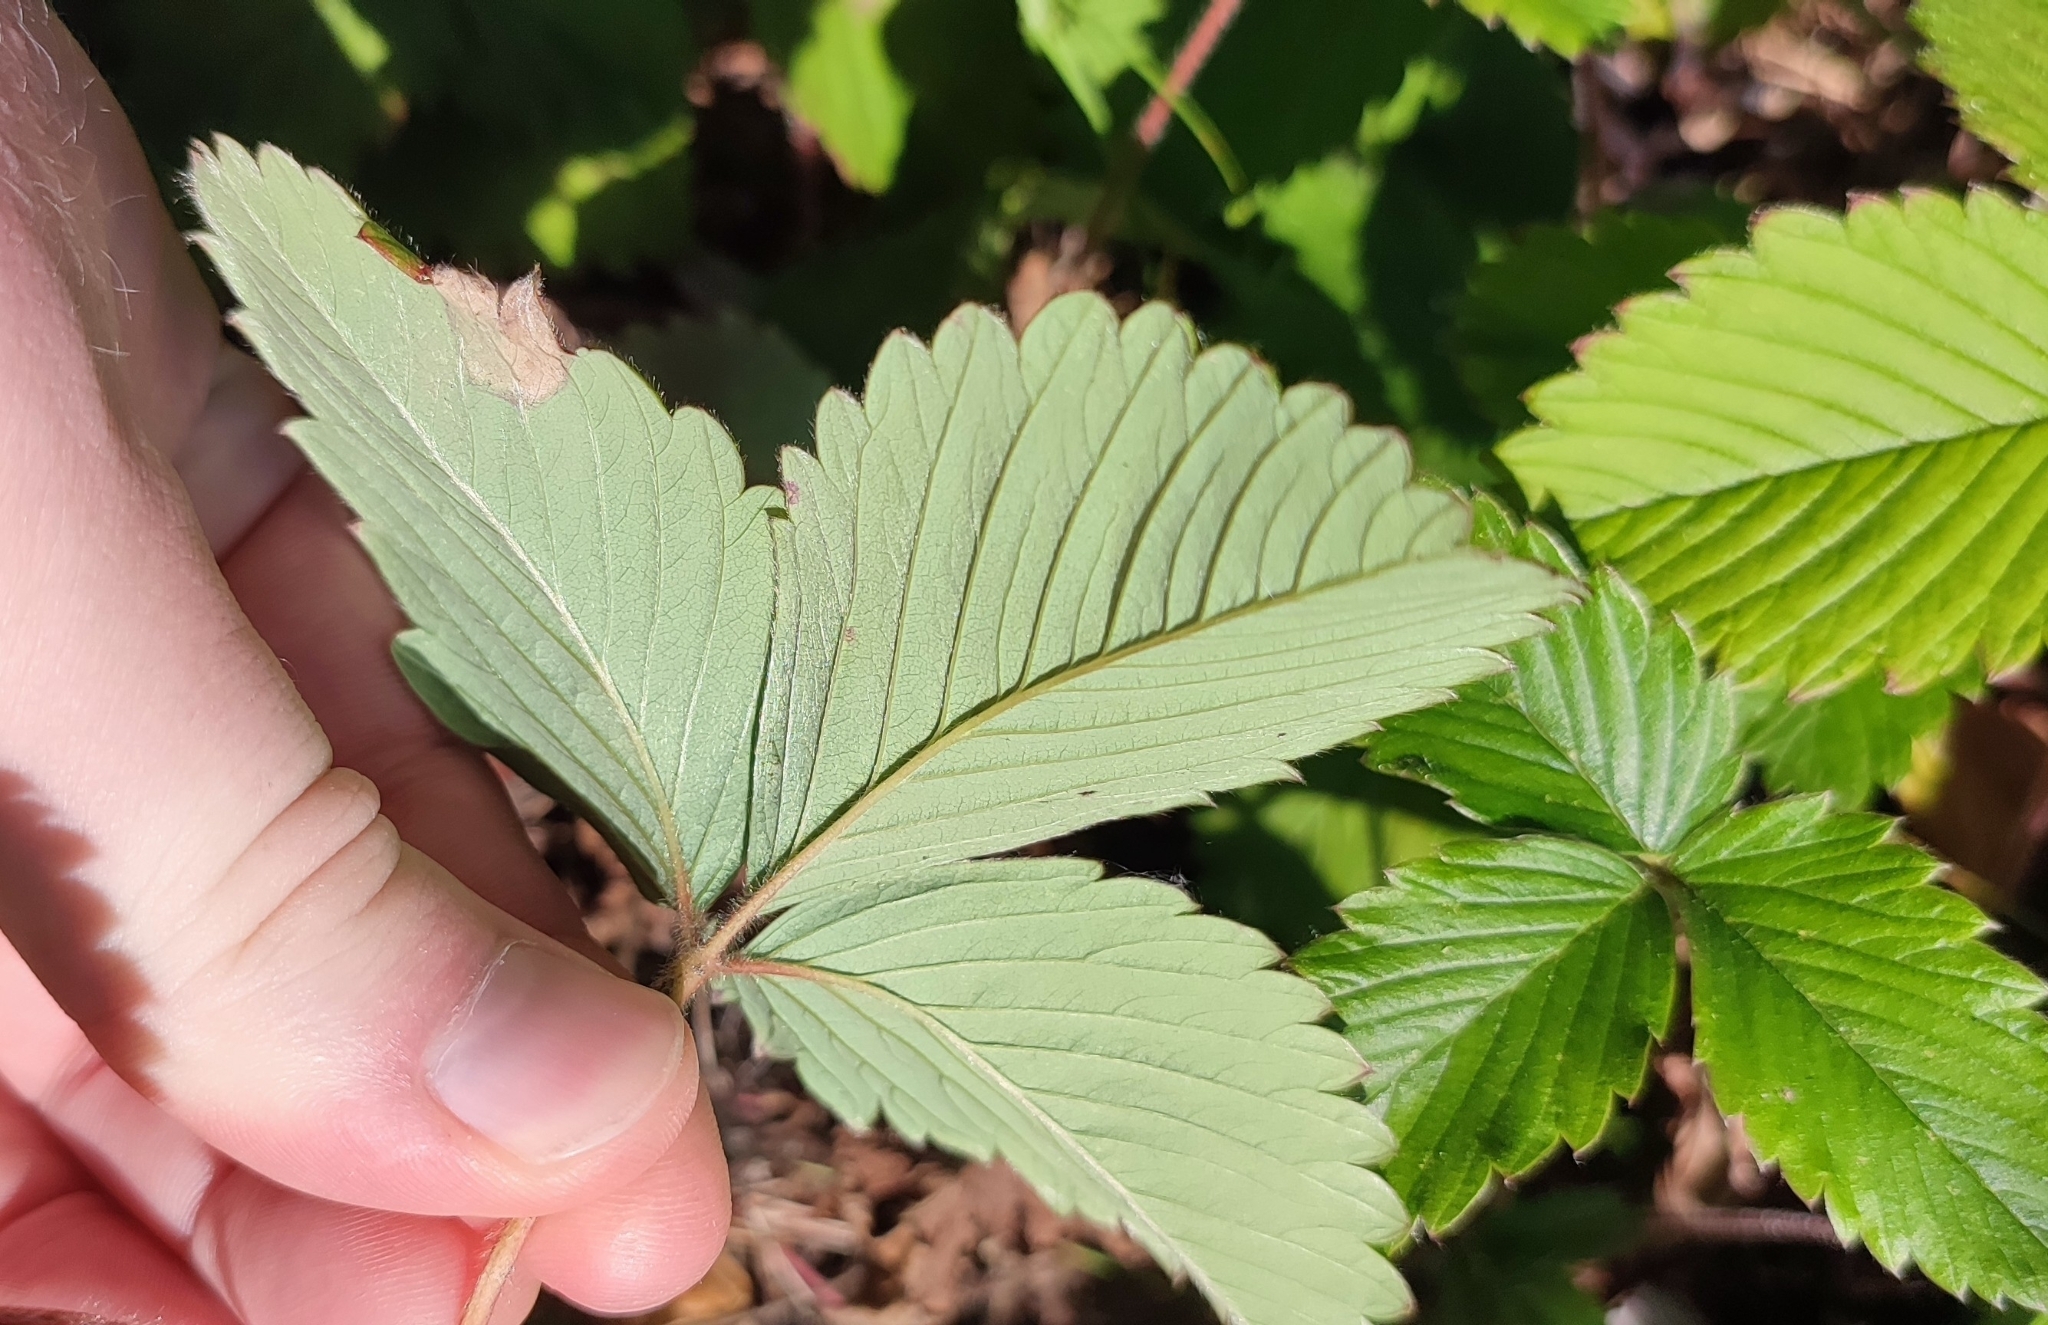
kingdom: Plantae
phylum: Tracheophyta
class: Magnoliopsida
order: Rosales
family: Rosaceae
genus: Fragaria
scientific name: Fragaria viridis
